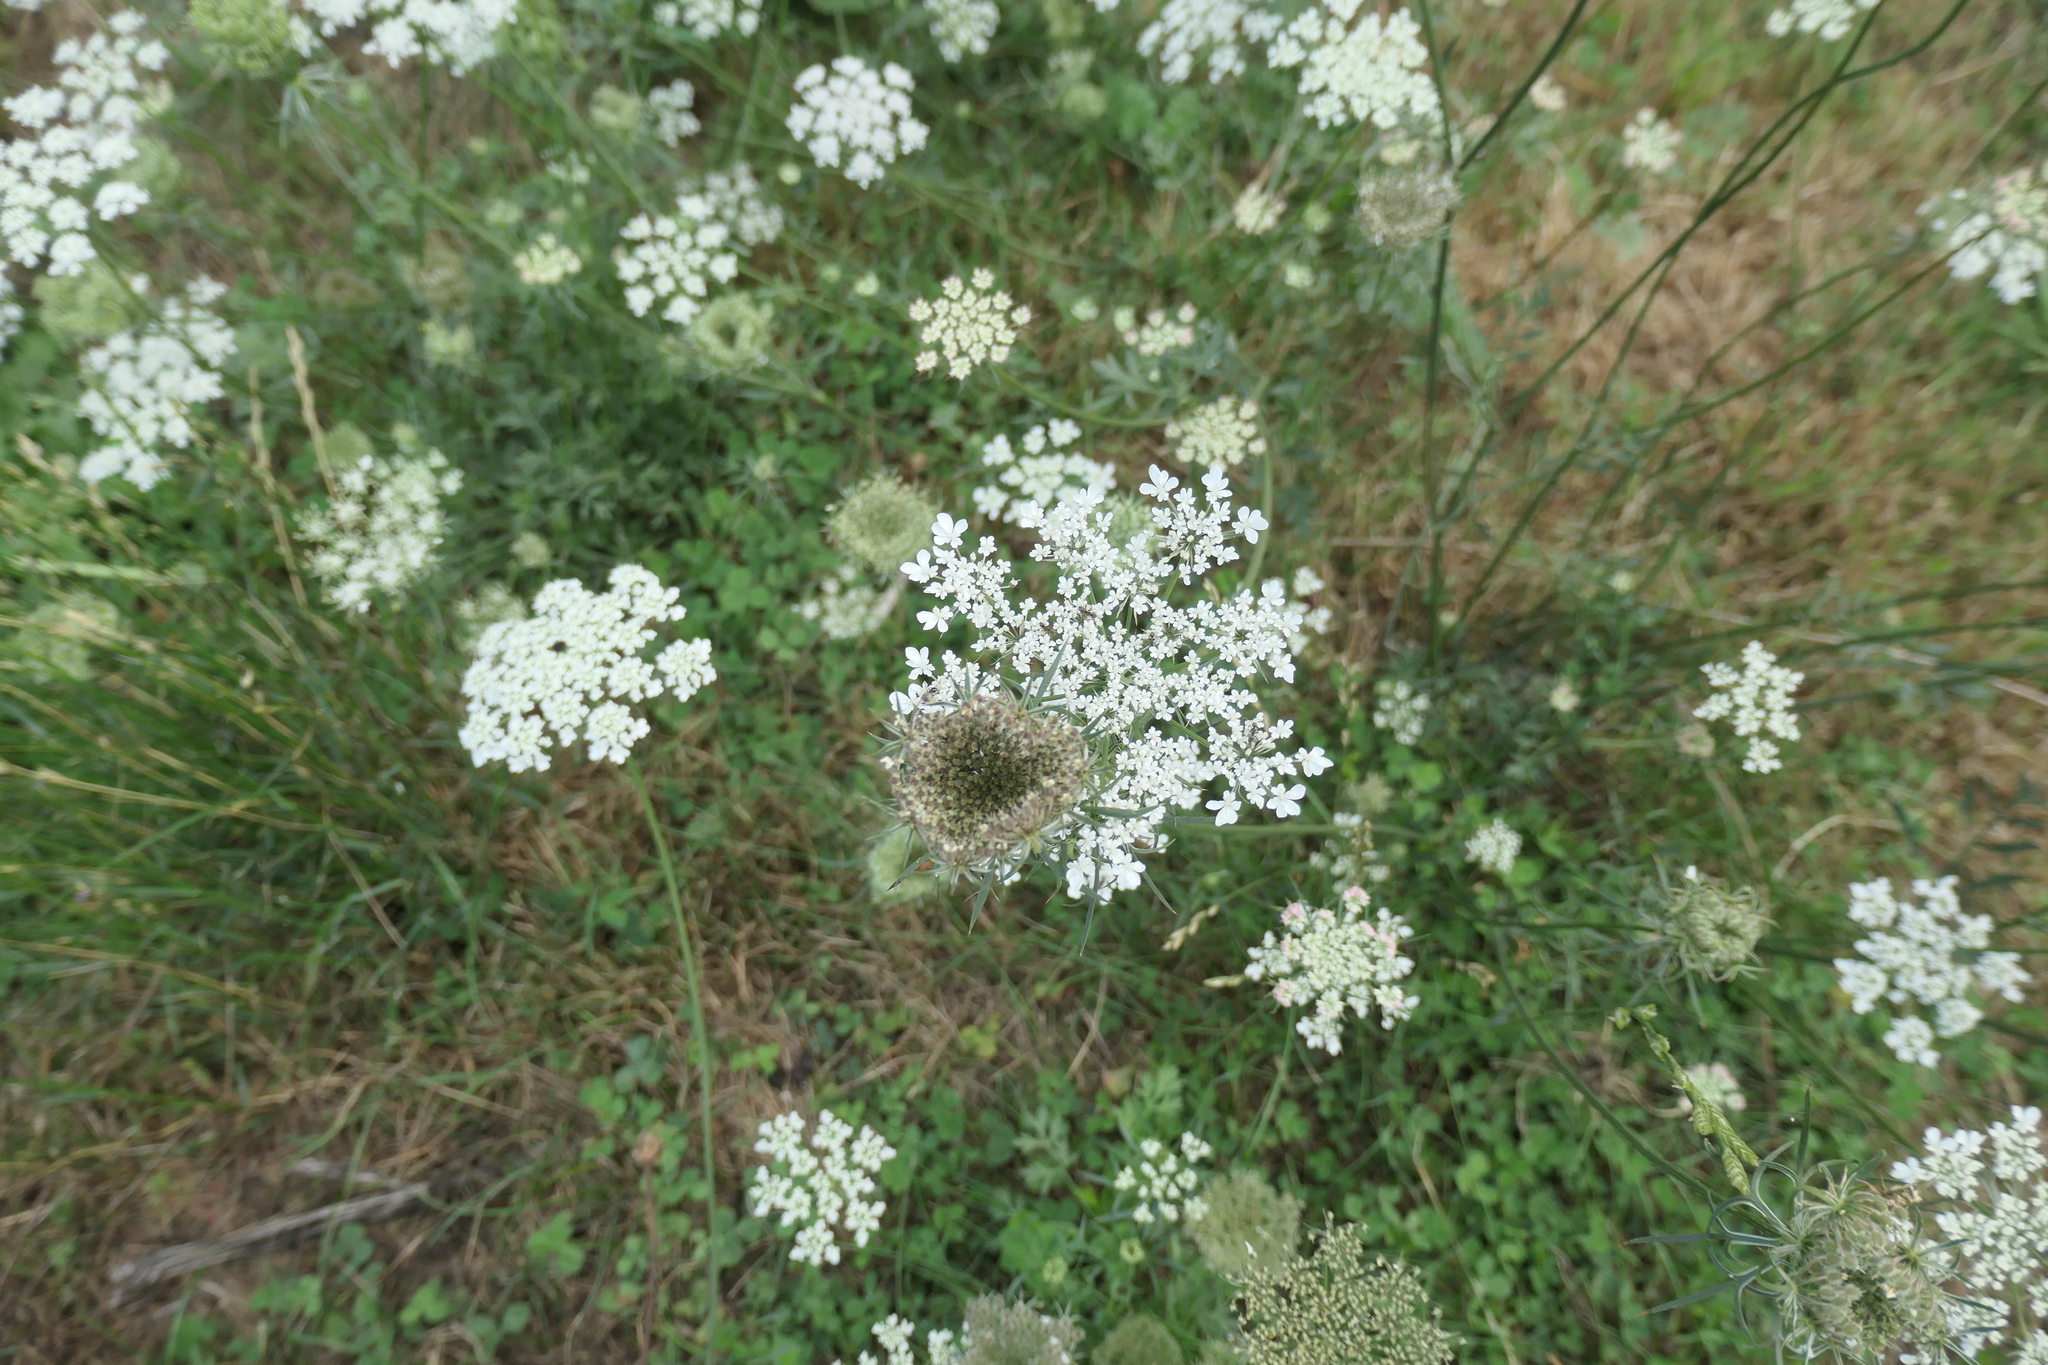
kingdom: Plantae
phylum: Tracheophyta
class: Magnoliopsida
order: Apiales
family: Apiaceae
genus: Daucus
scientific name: Daucus carota
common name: Wild carrot
